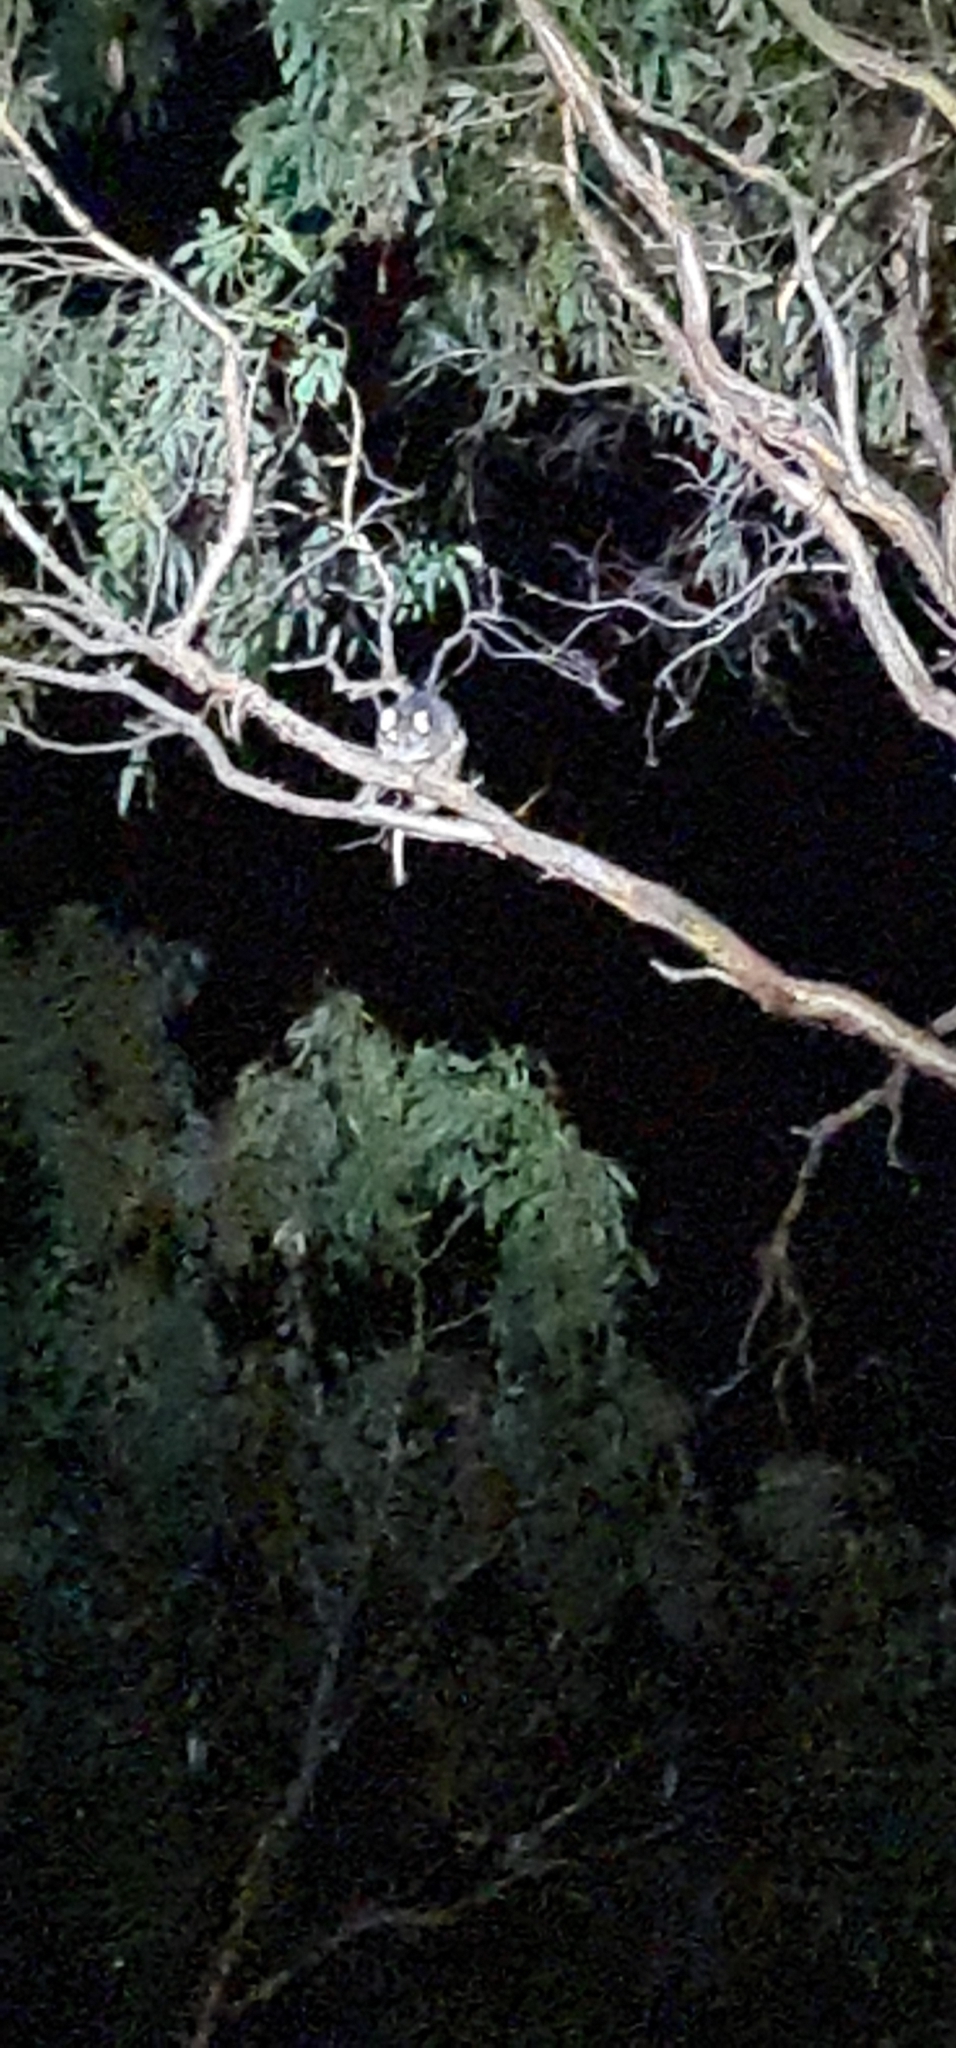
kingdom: Animalia
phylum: Chordata
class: Mammalia
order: Diprotodontia
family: Pseudocheiridae
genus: Pseudocheirus
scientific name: Pseudocheirus peregrinus
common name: Common ringtail possum
